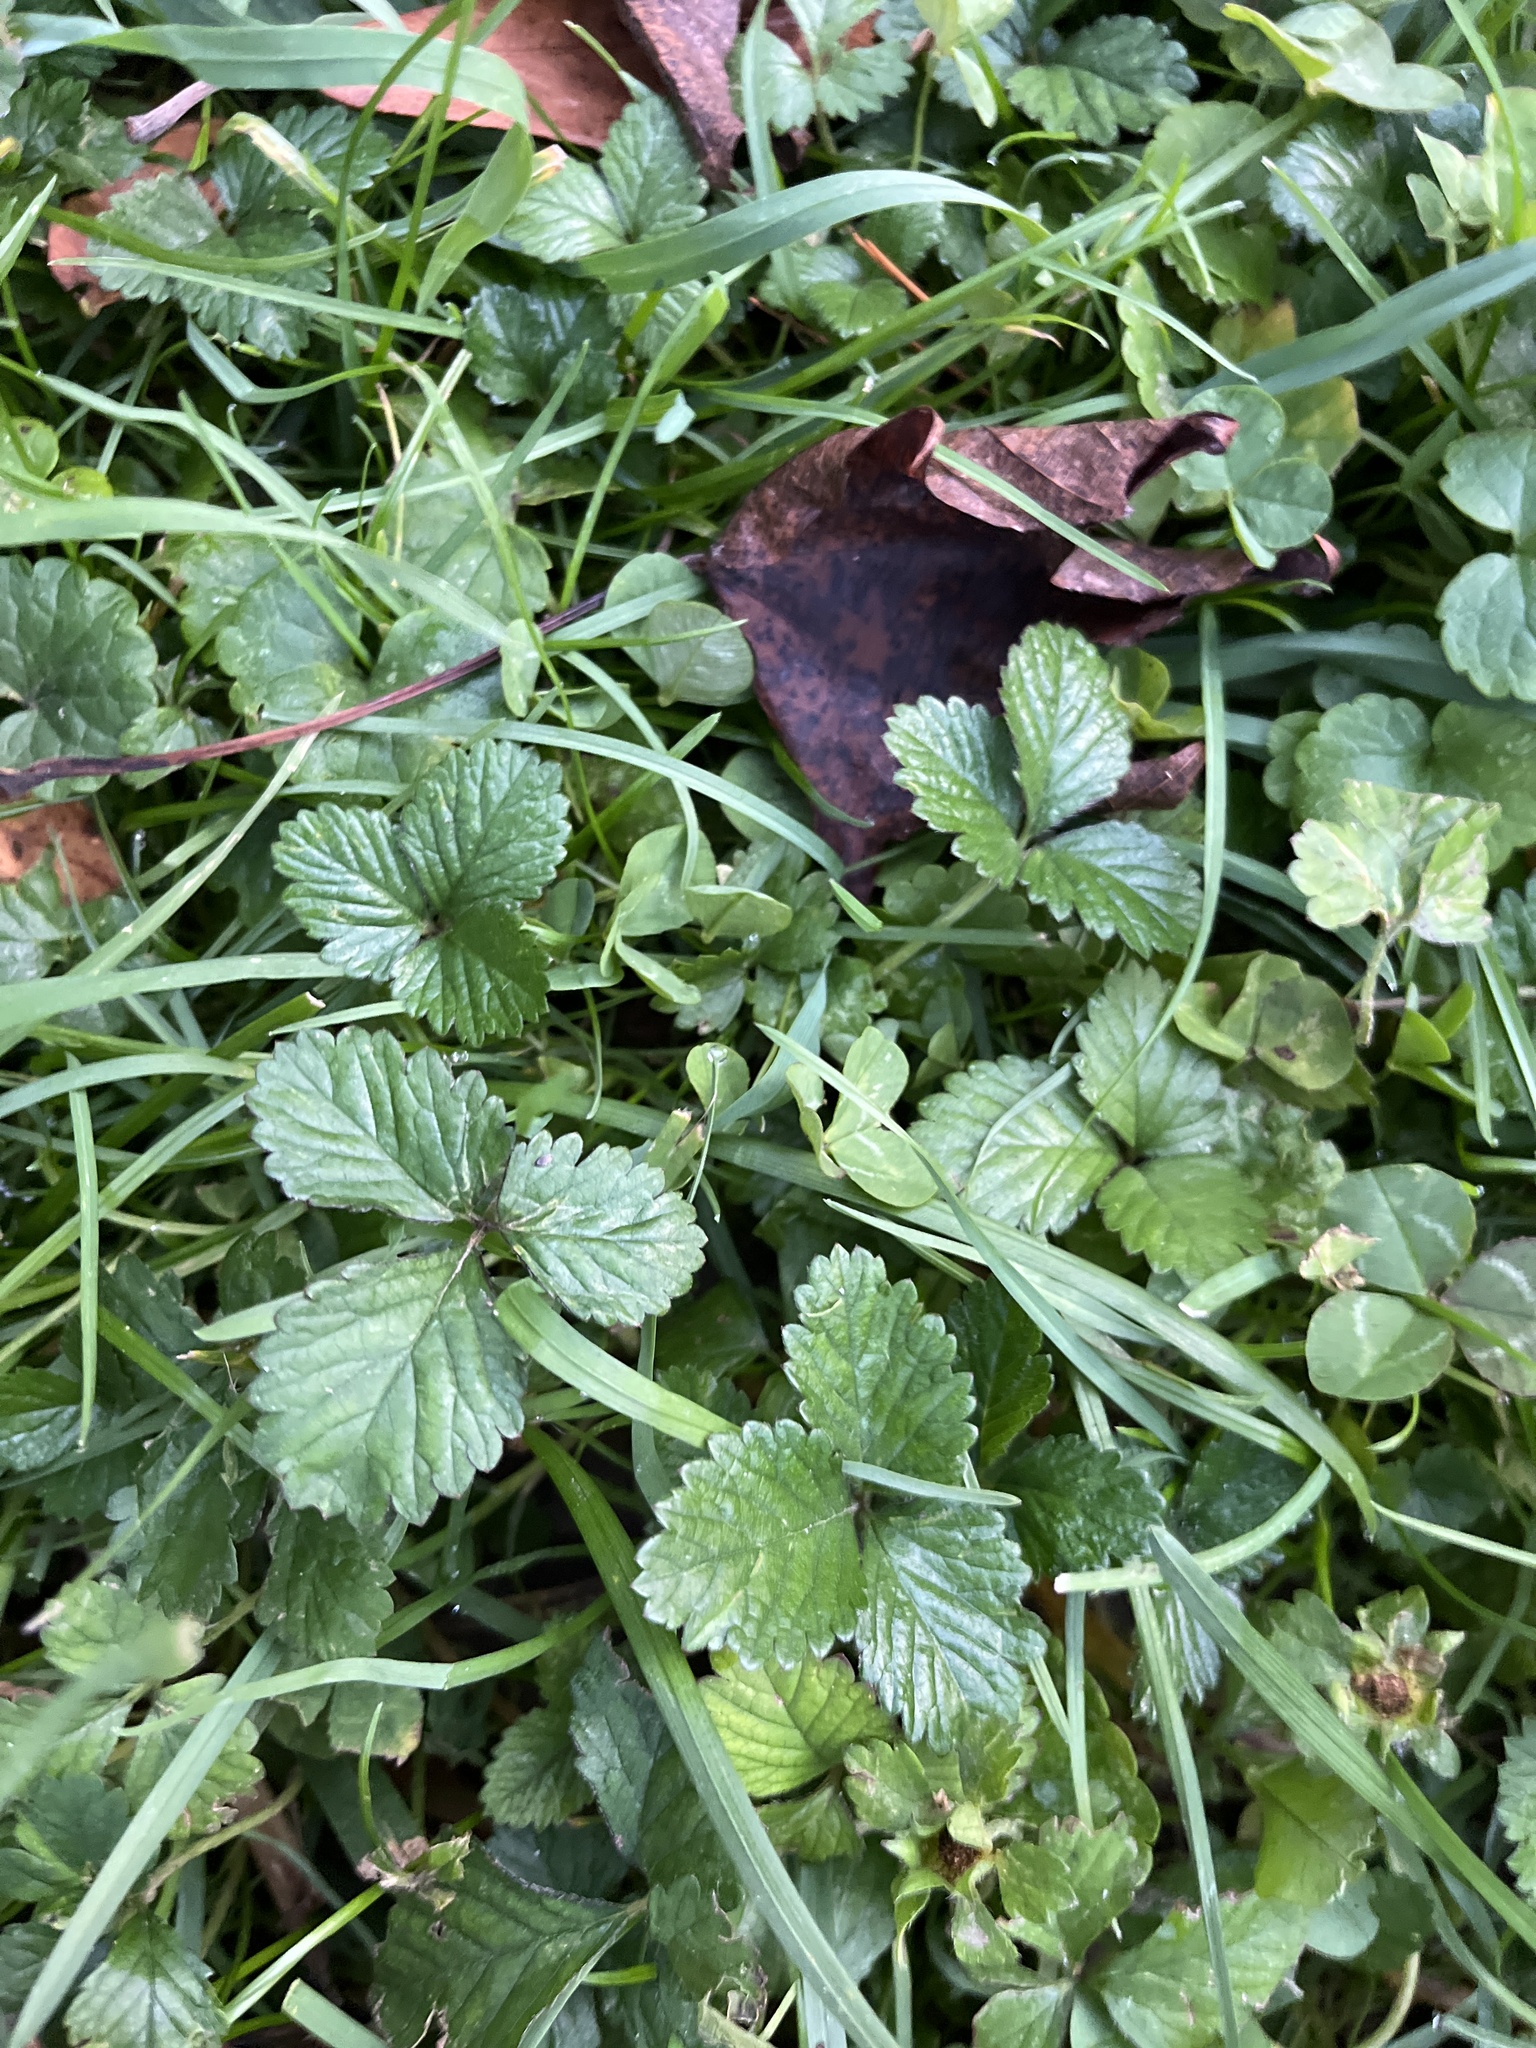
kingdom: Plantae
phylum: Tracheophyta
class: Magnoliopsida
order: Rosales
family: Rosaceae
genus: Potentilla
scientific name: Potentilla indica
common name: Yellow-flowered strawberry
